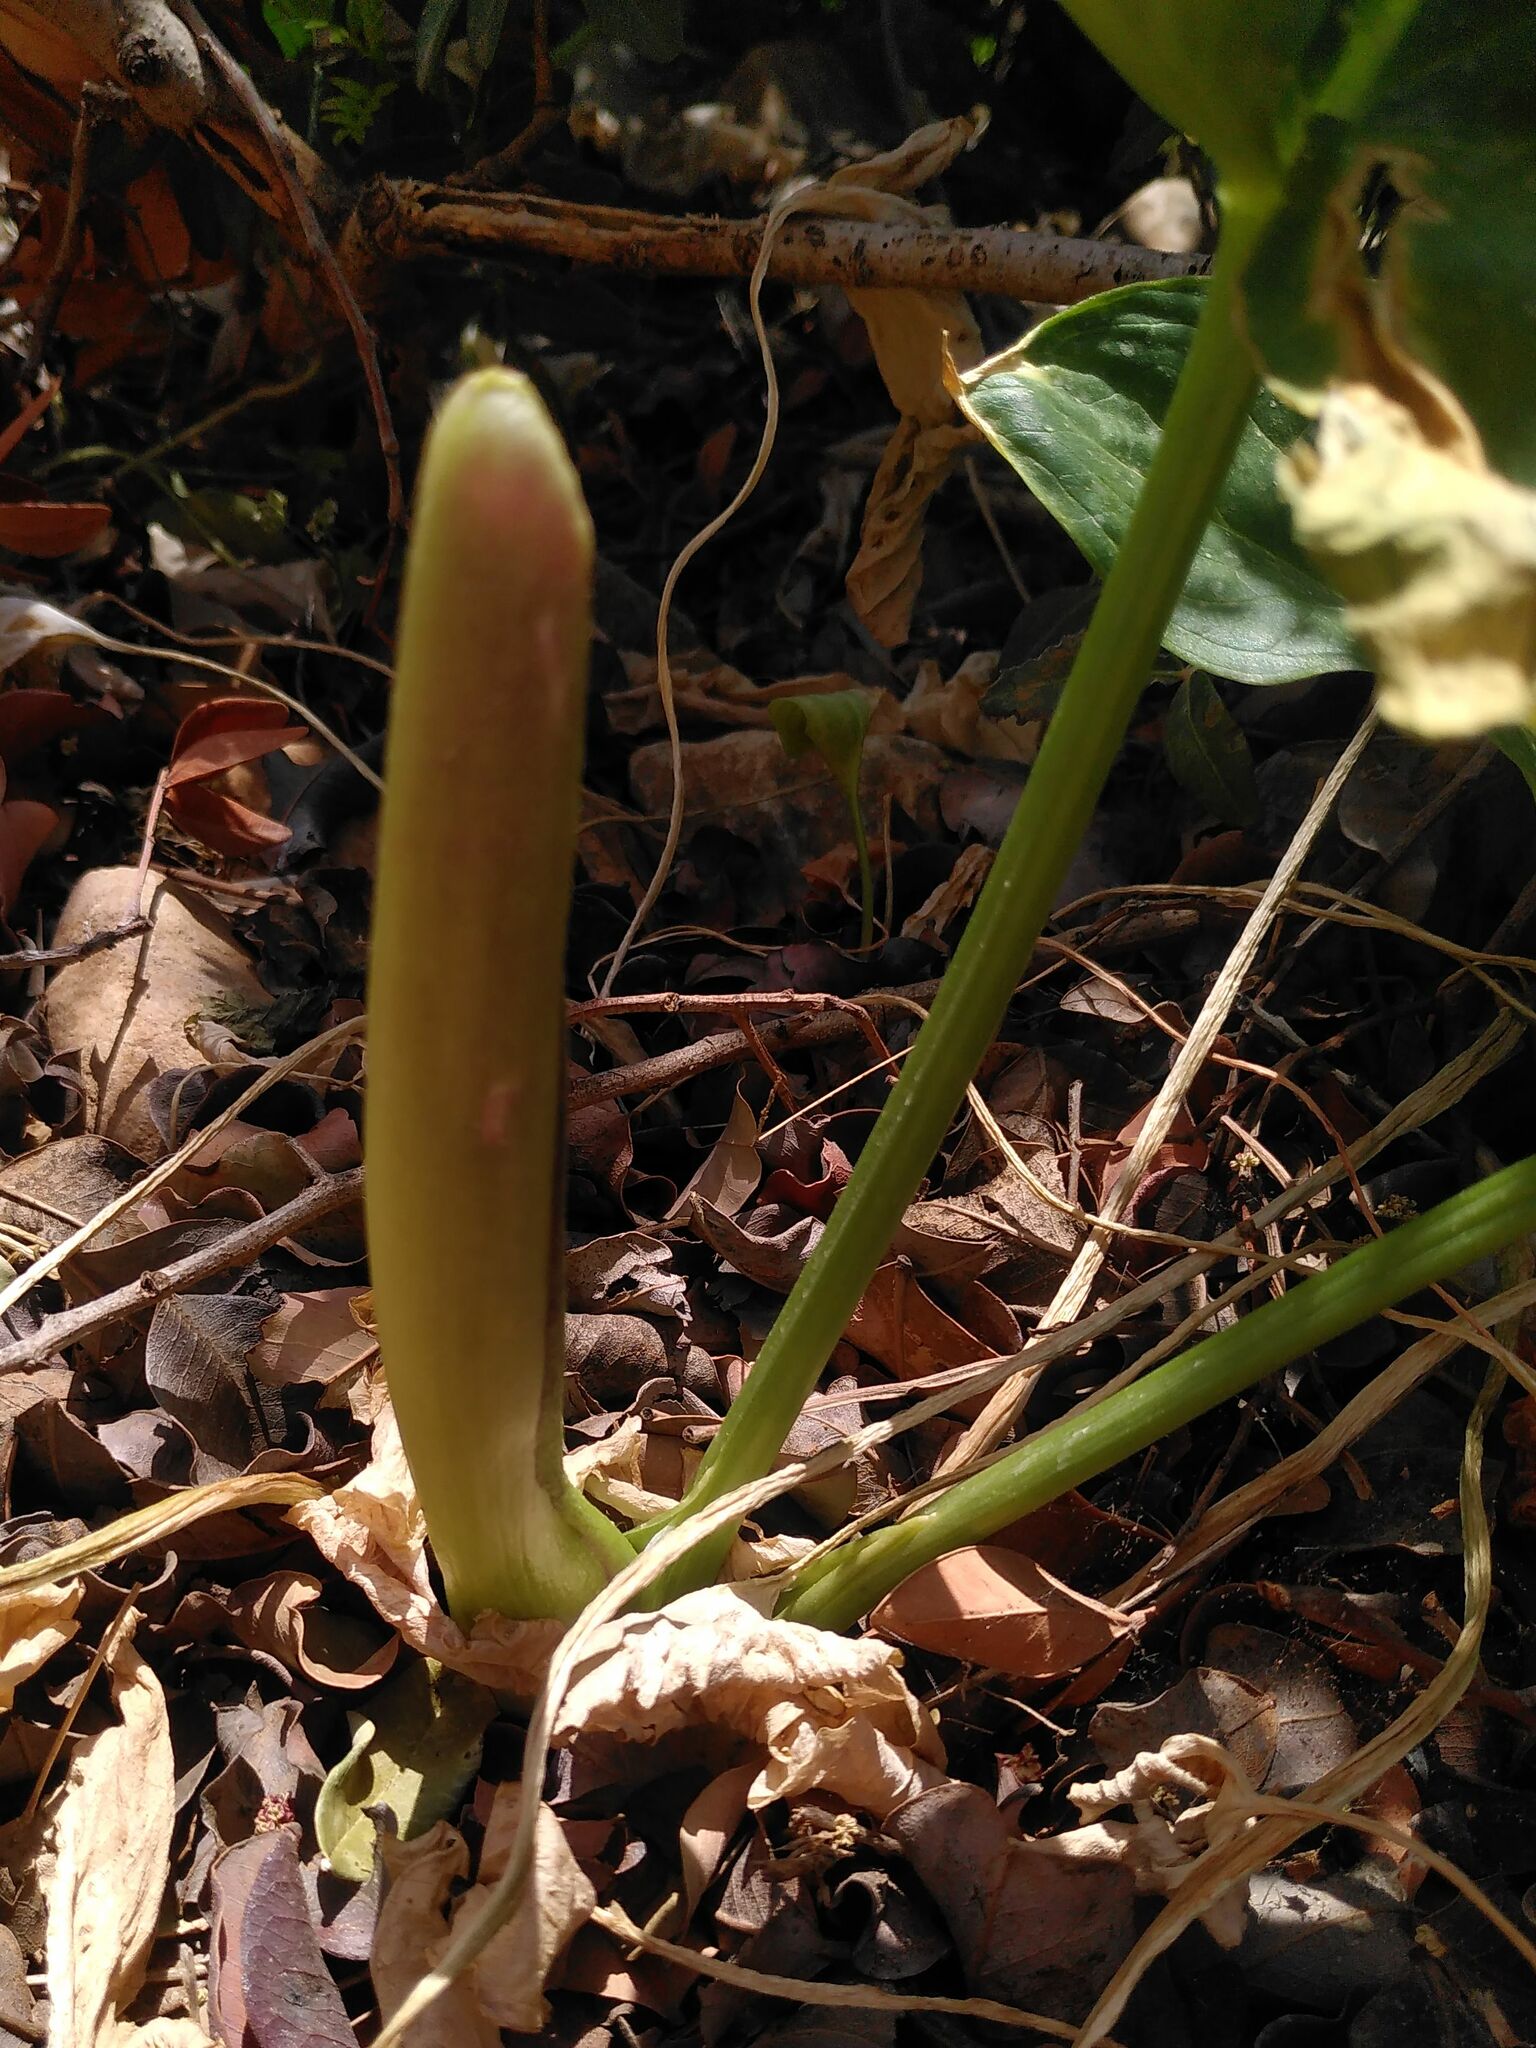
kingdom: Plantae
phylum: Tracheophyta
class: Liliopsida
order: Alismatales
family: Araceae
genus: Arum
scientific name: Arum concinnatum
